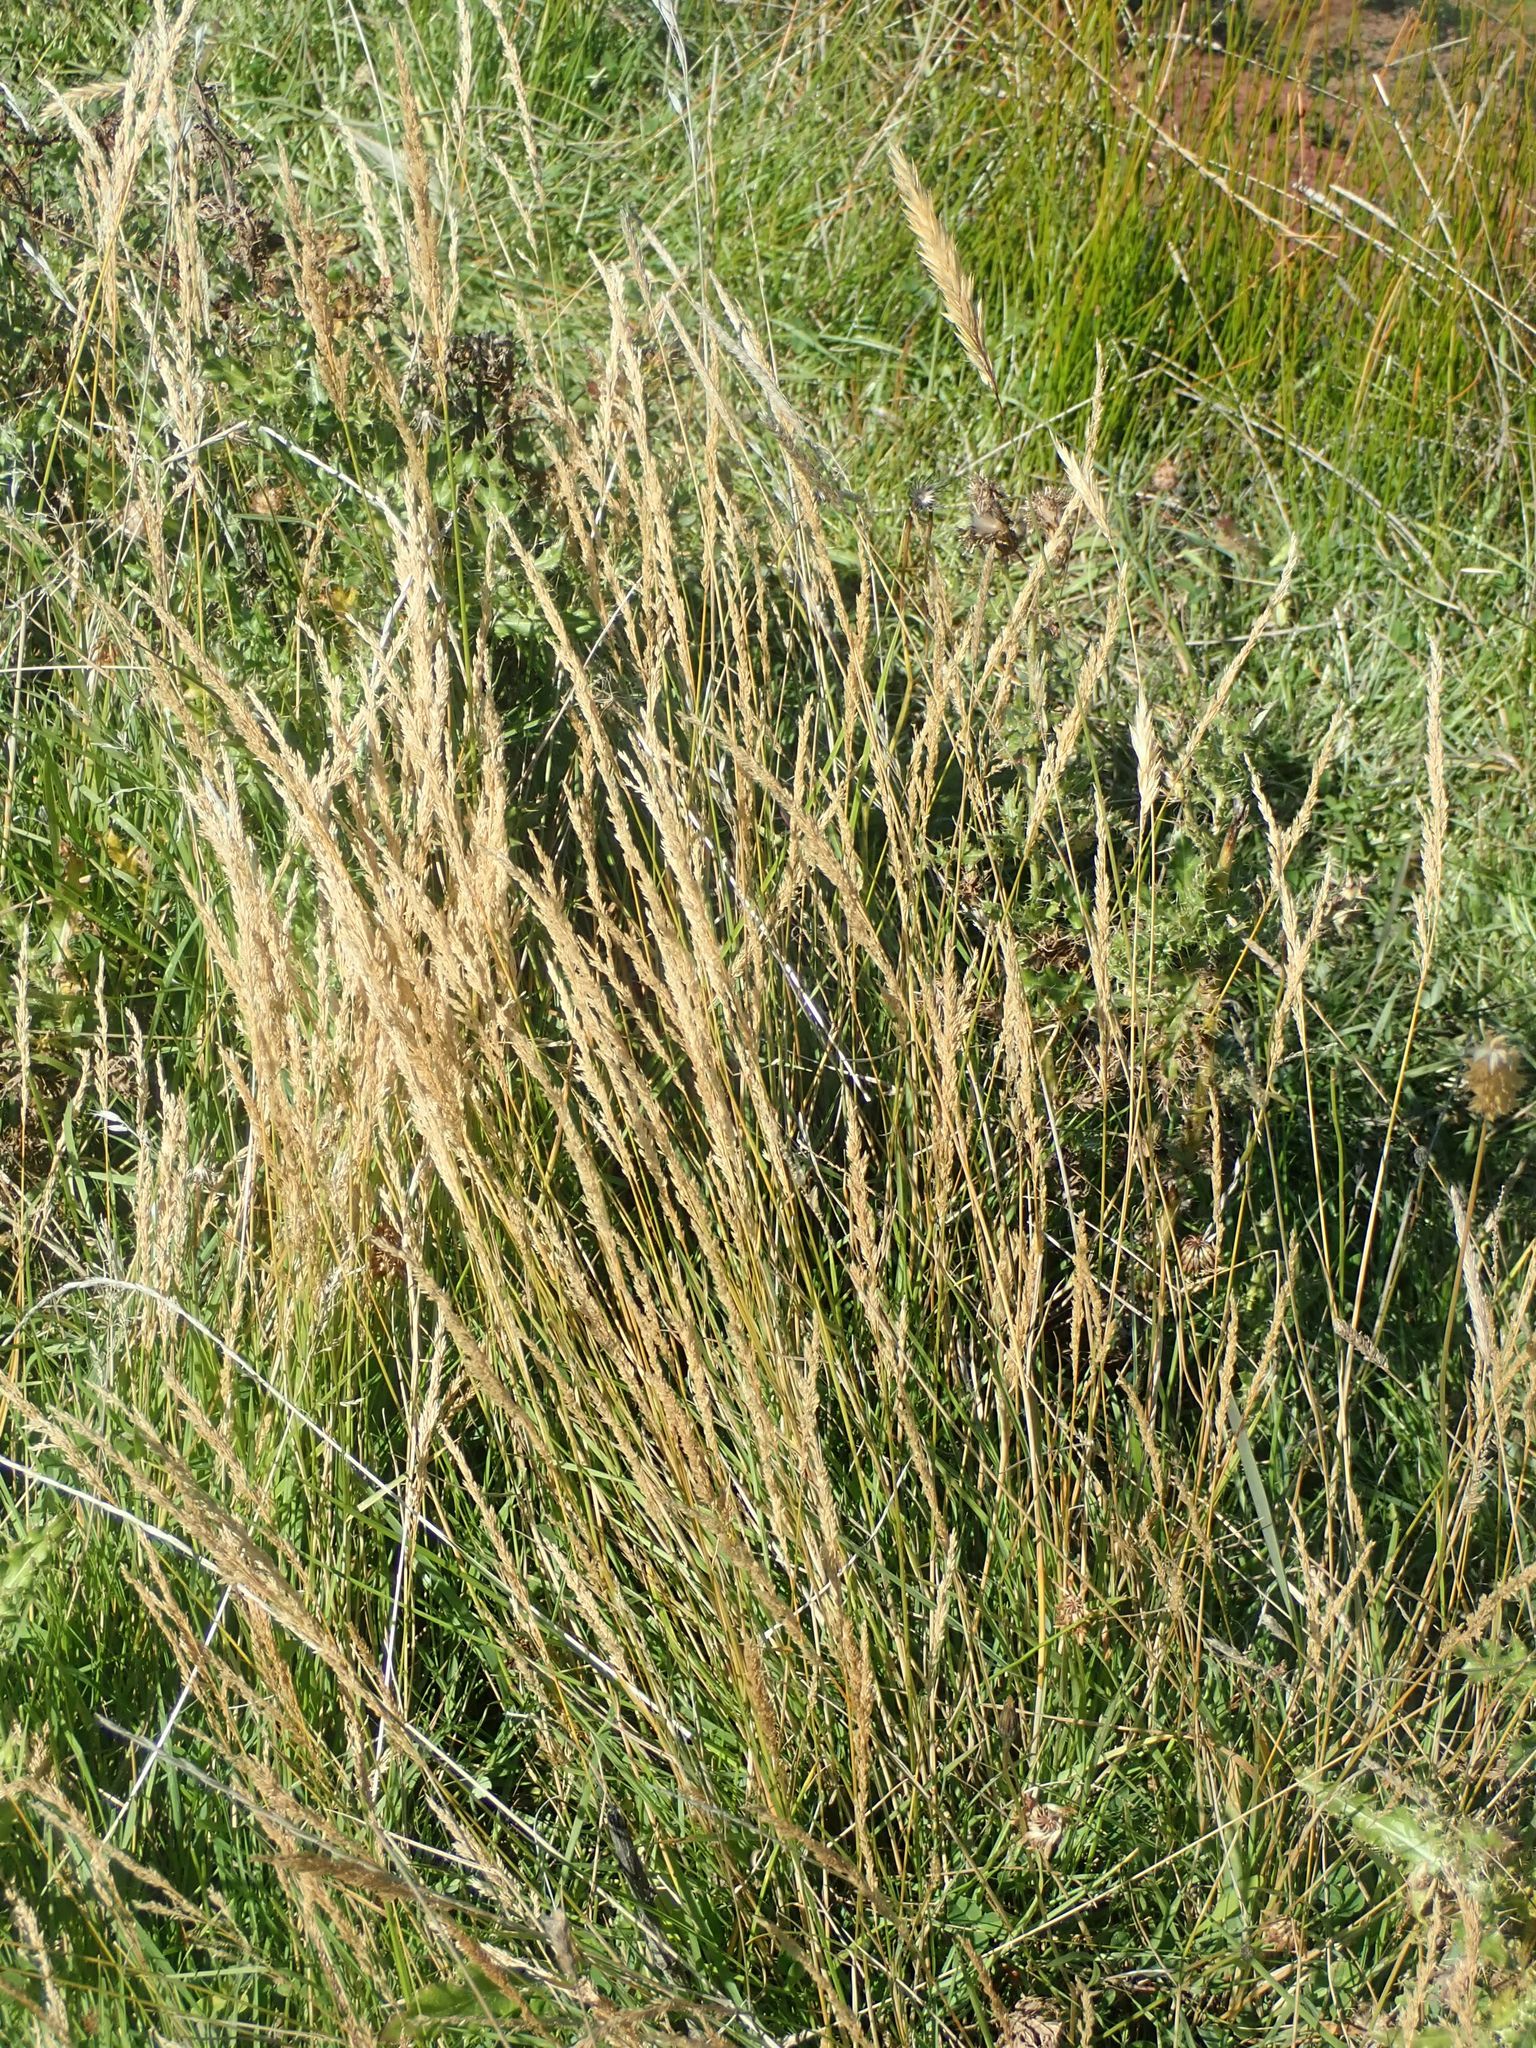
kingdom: Plantae
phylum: Tracheophyta
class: Liliopsida
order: Poales
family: Poaceae
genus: Agrostis
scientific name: Agrostis stolonifera
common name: Creeping bentgrass
